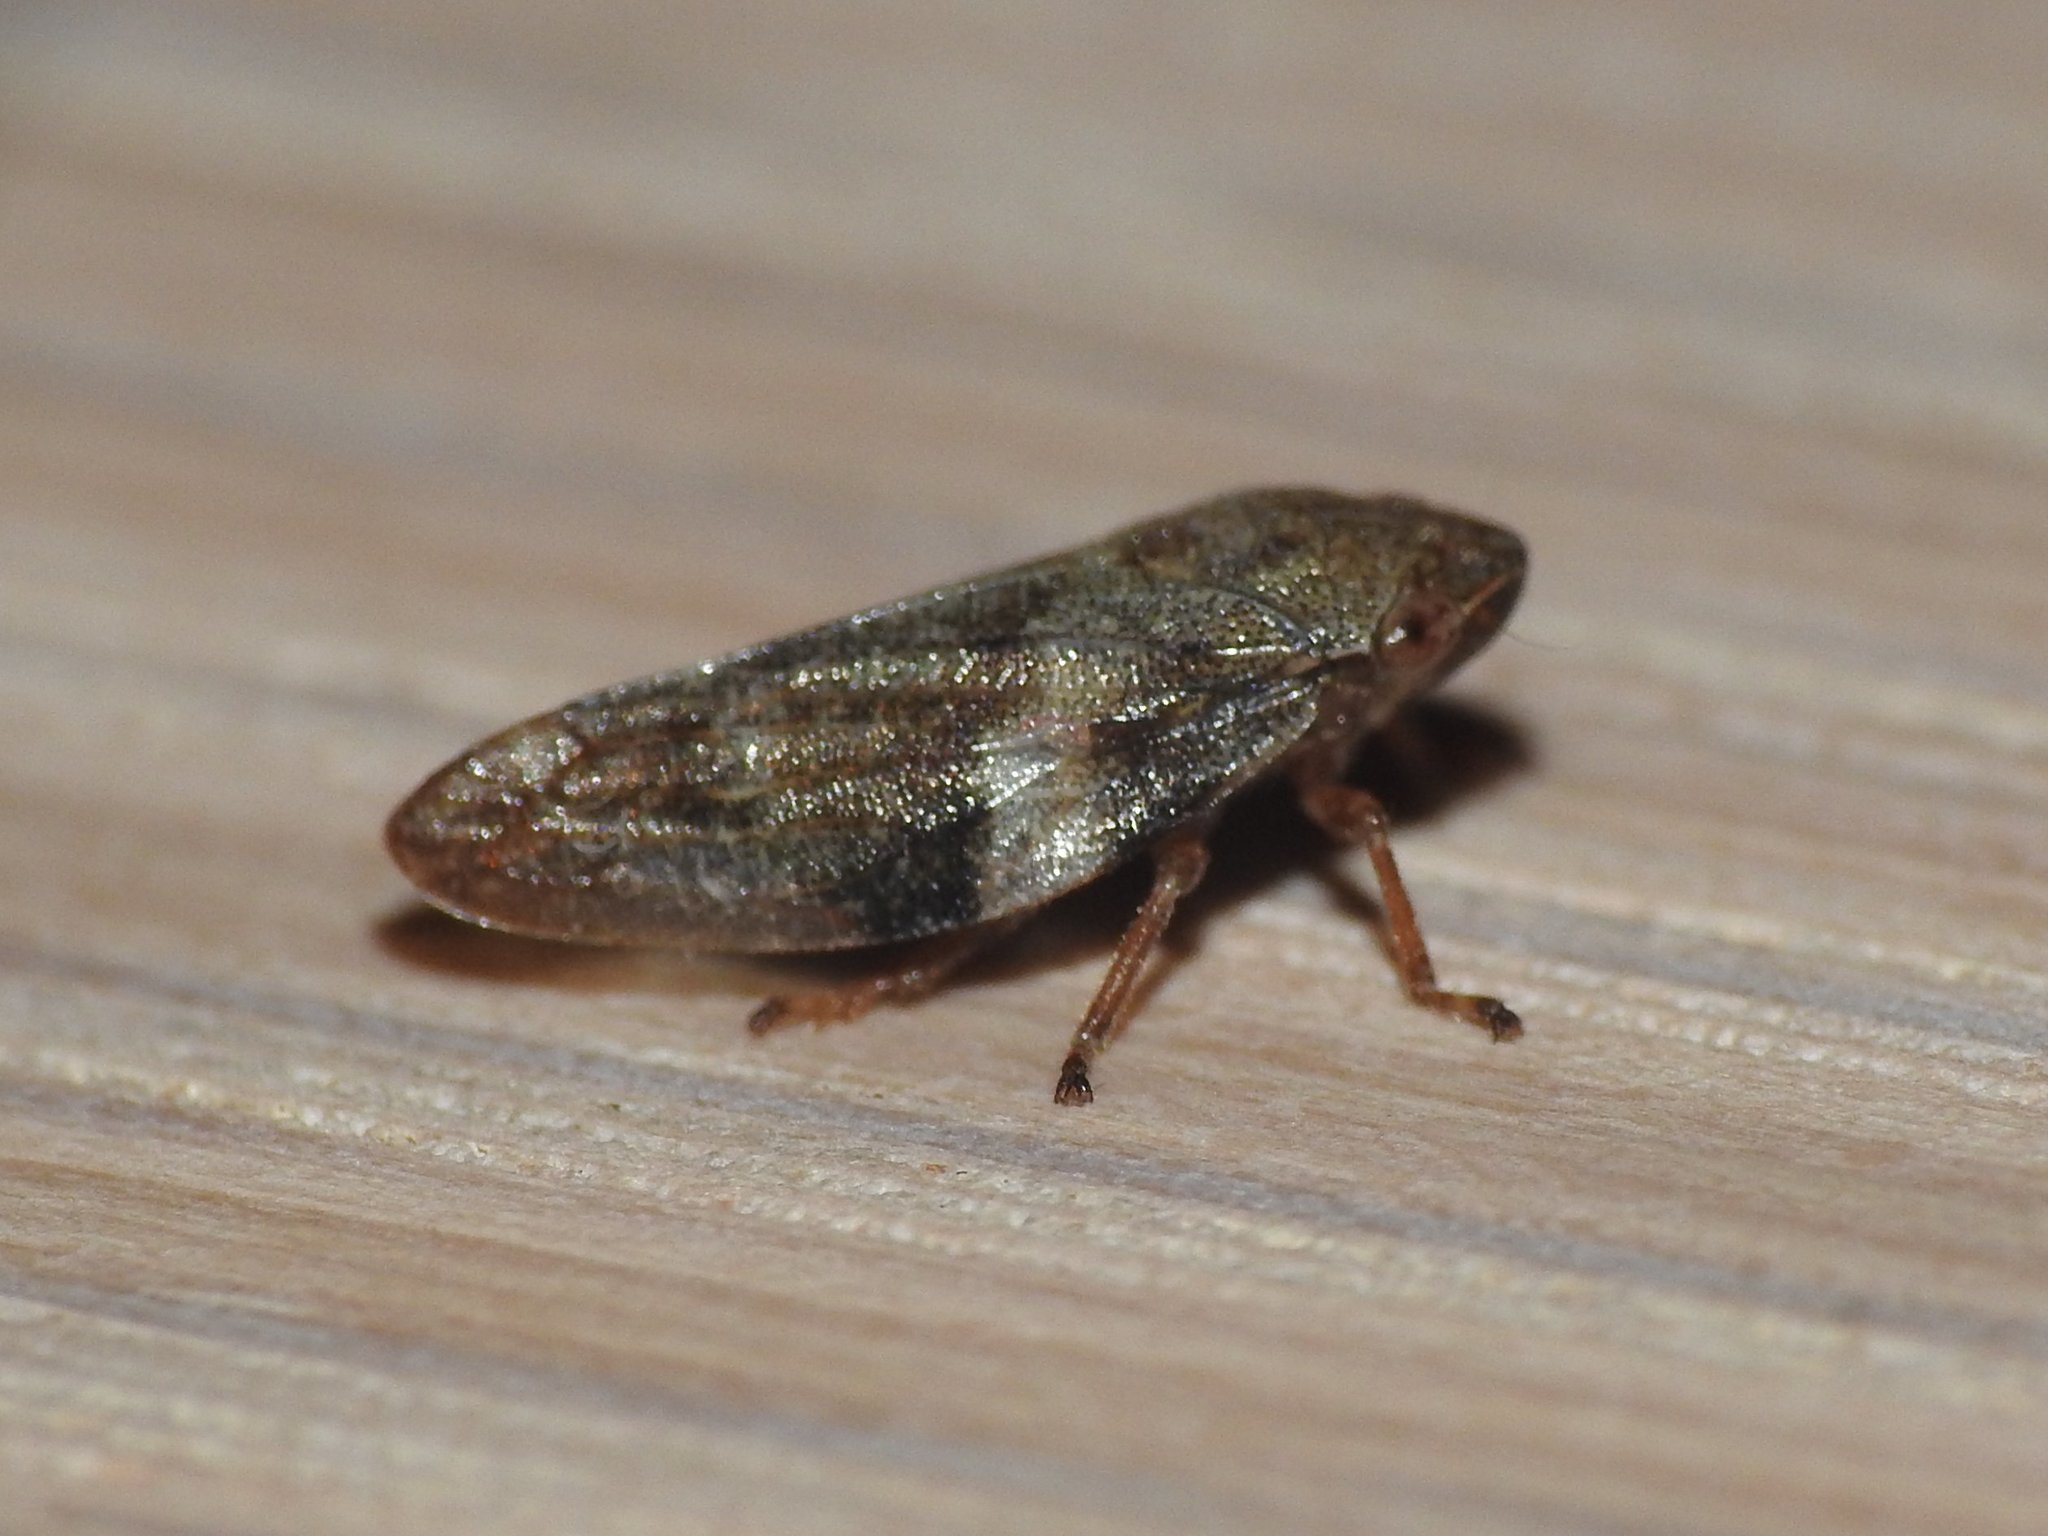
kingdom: Animalia
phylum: Arthropoda
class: Insecta
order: Hemiptera
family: Aphrophoridae
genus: Aphrophora
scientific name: Aphrophora alni
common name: European alder spittlebug
